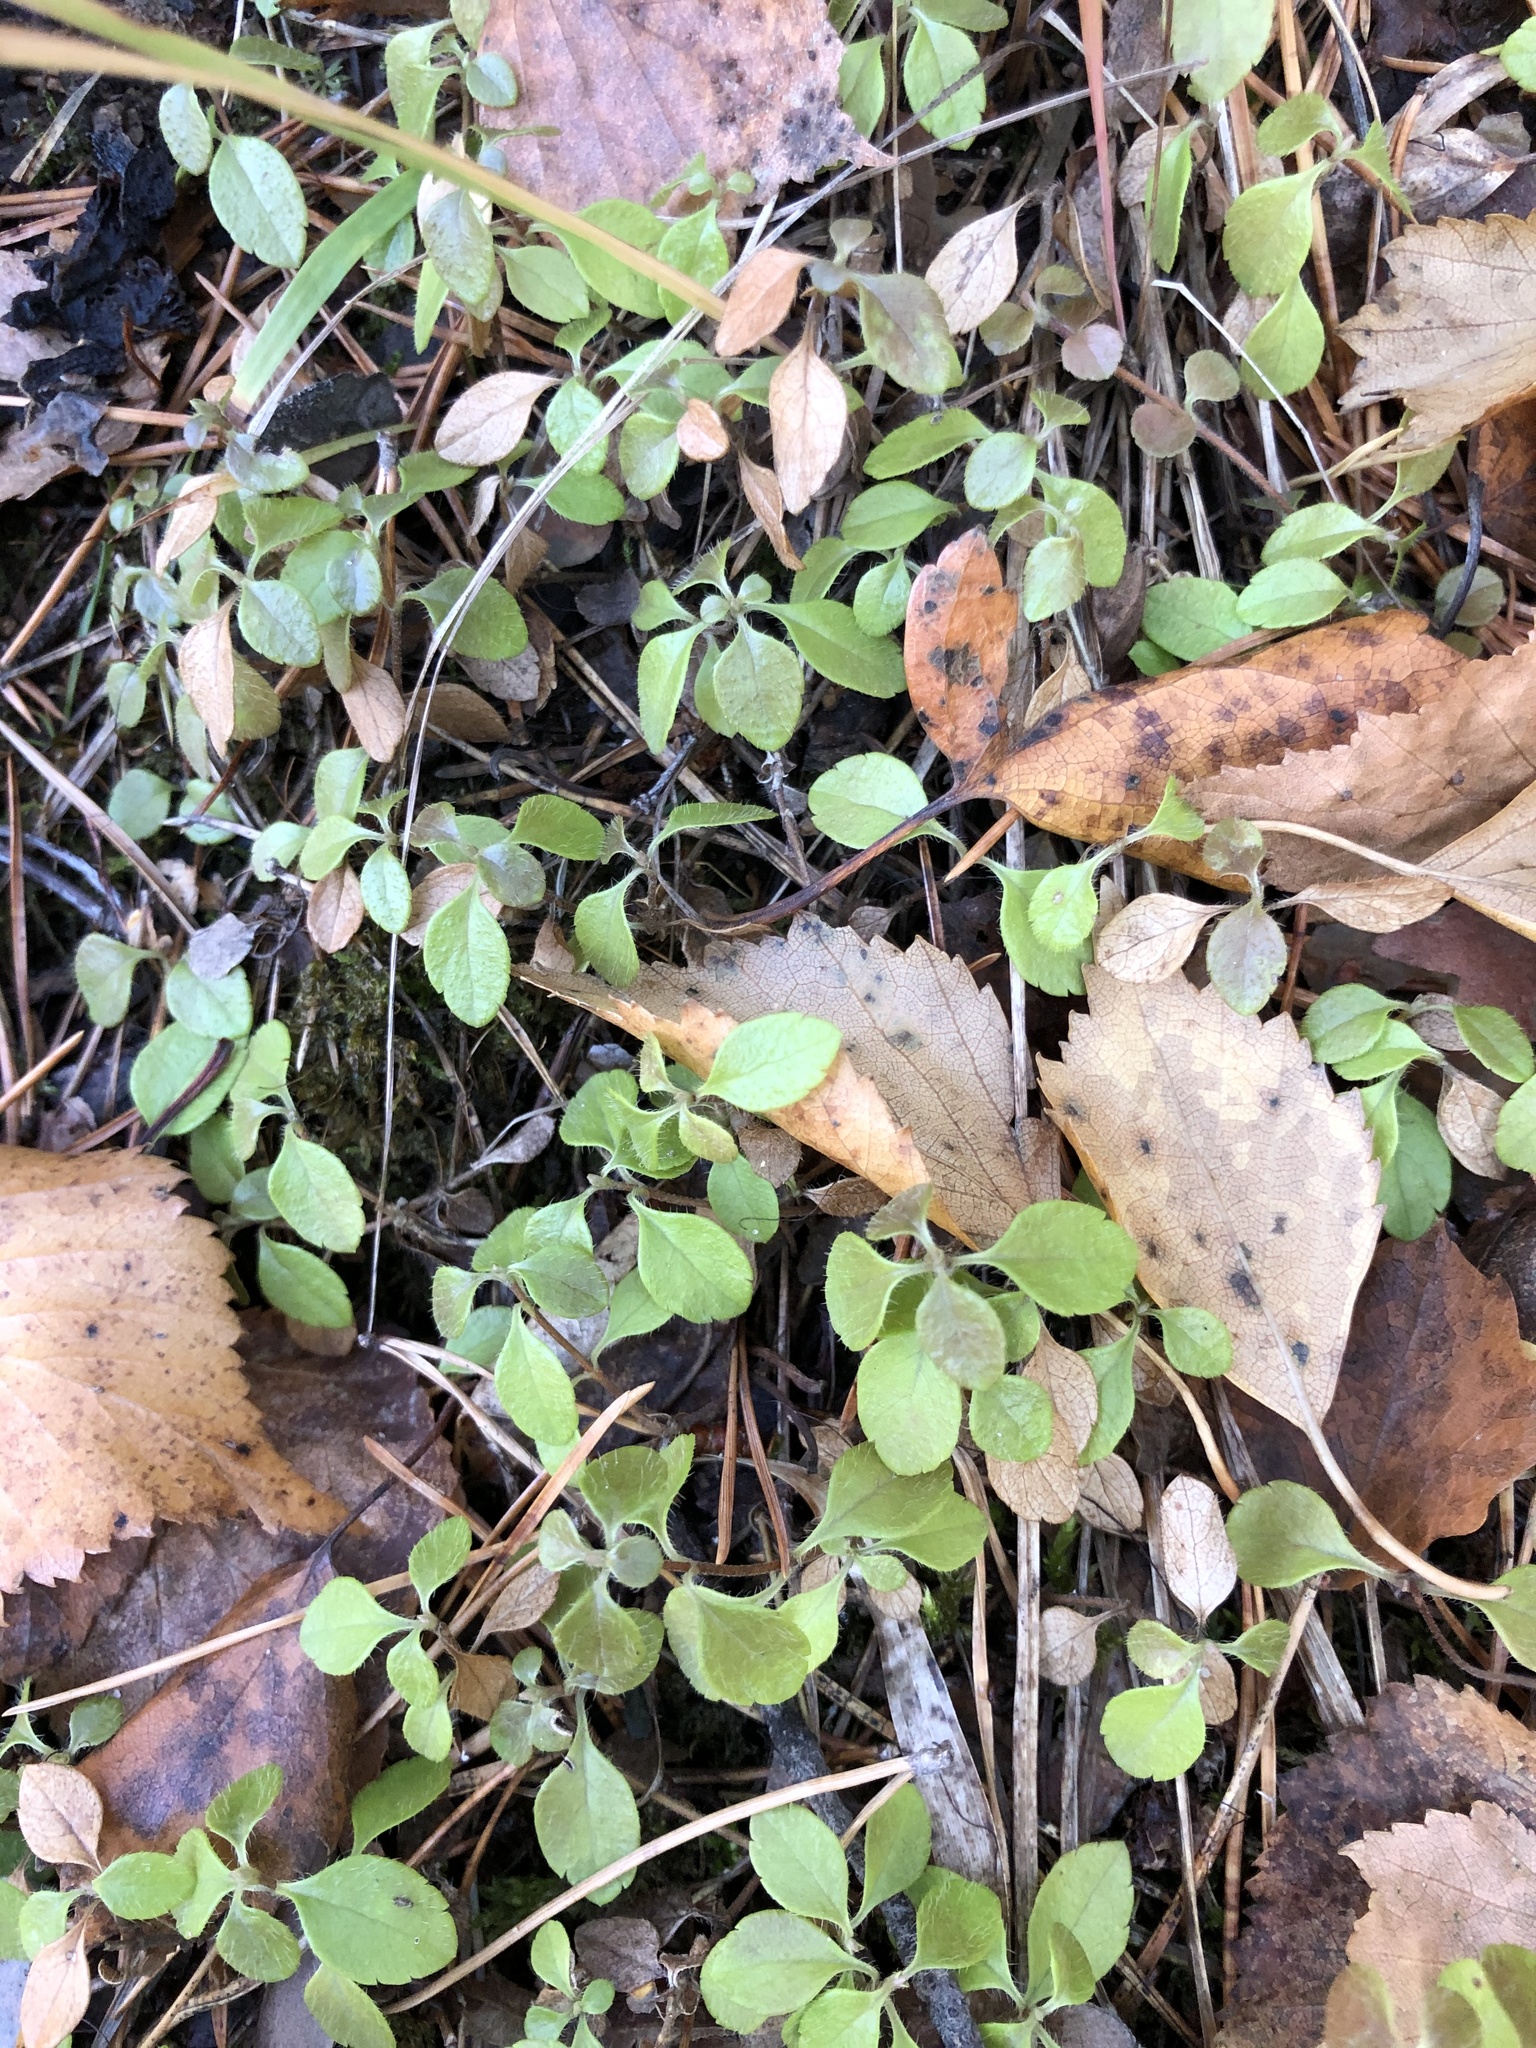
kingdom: Plantae
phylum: Tracheophyta
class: Magnoliopsida
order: Dipsacales
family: Caprifoliaceae
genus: Linnaea
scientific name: Linnaea borealis
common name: Twinflower
